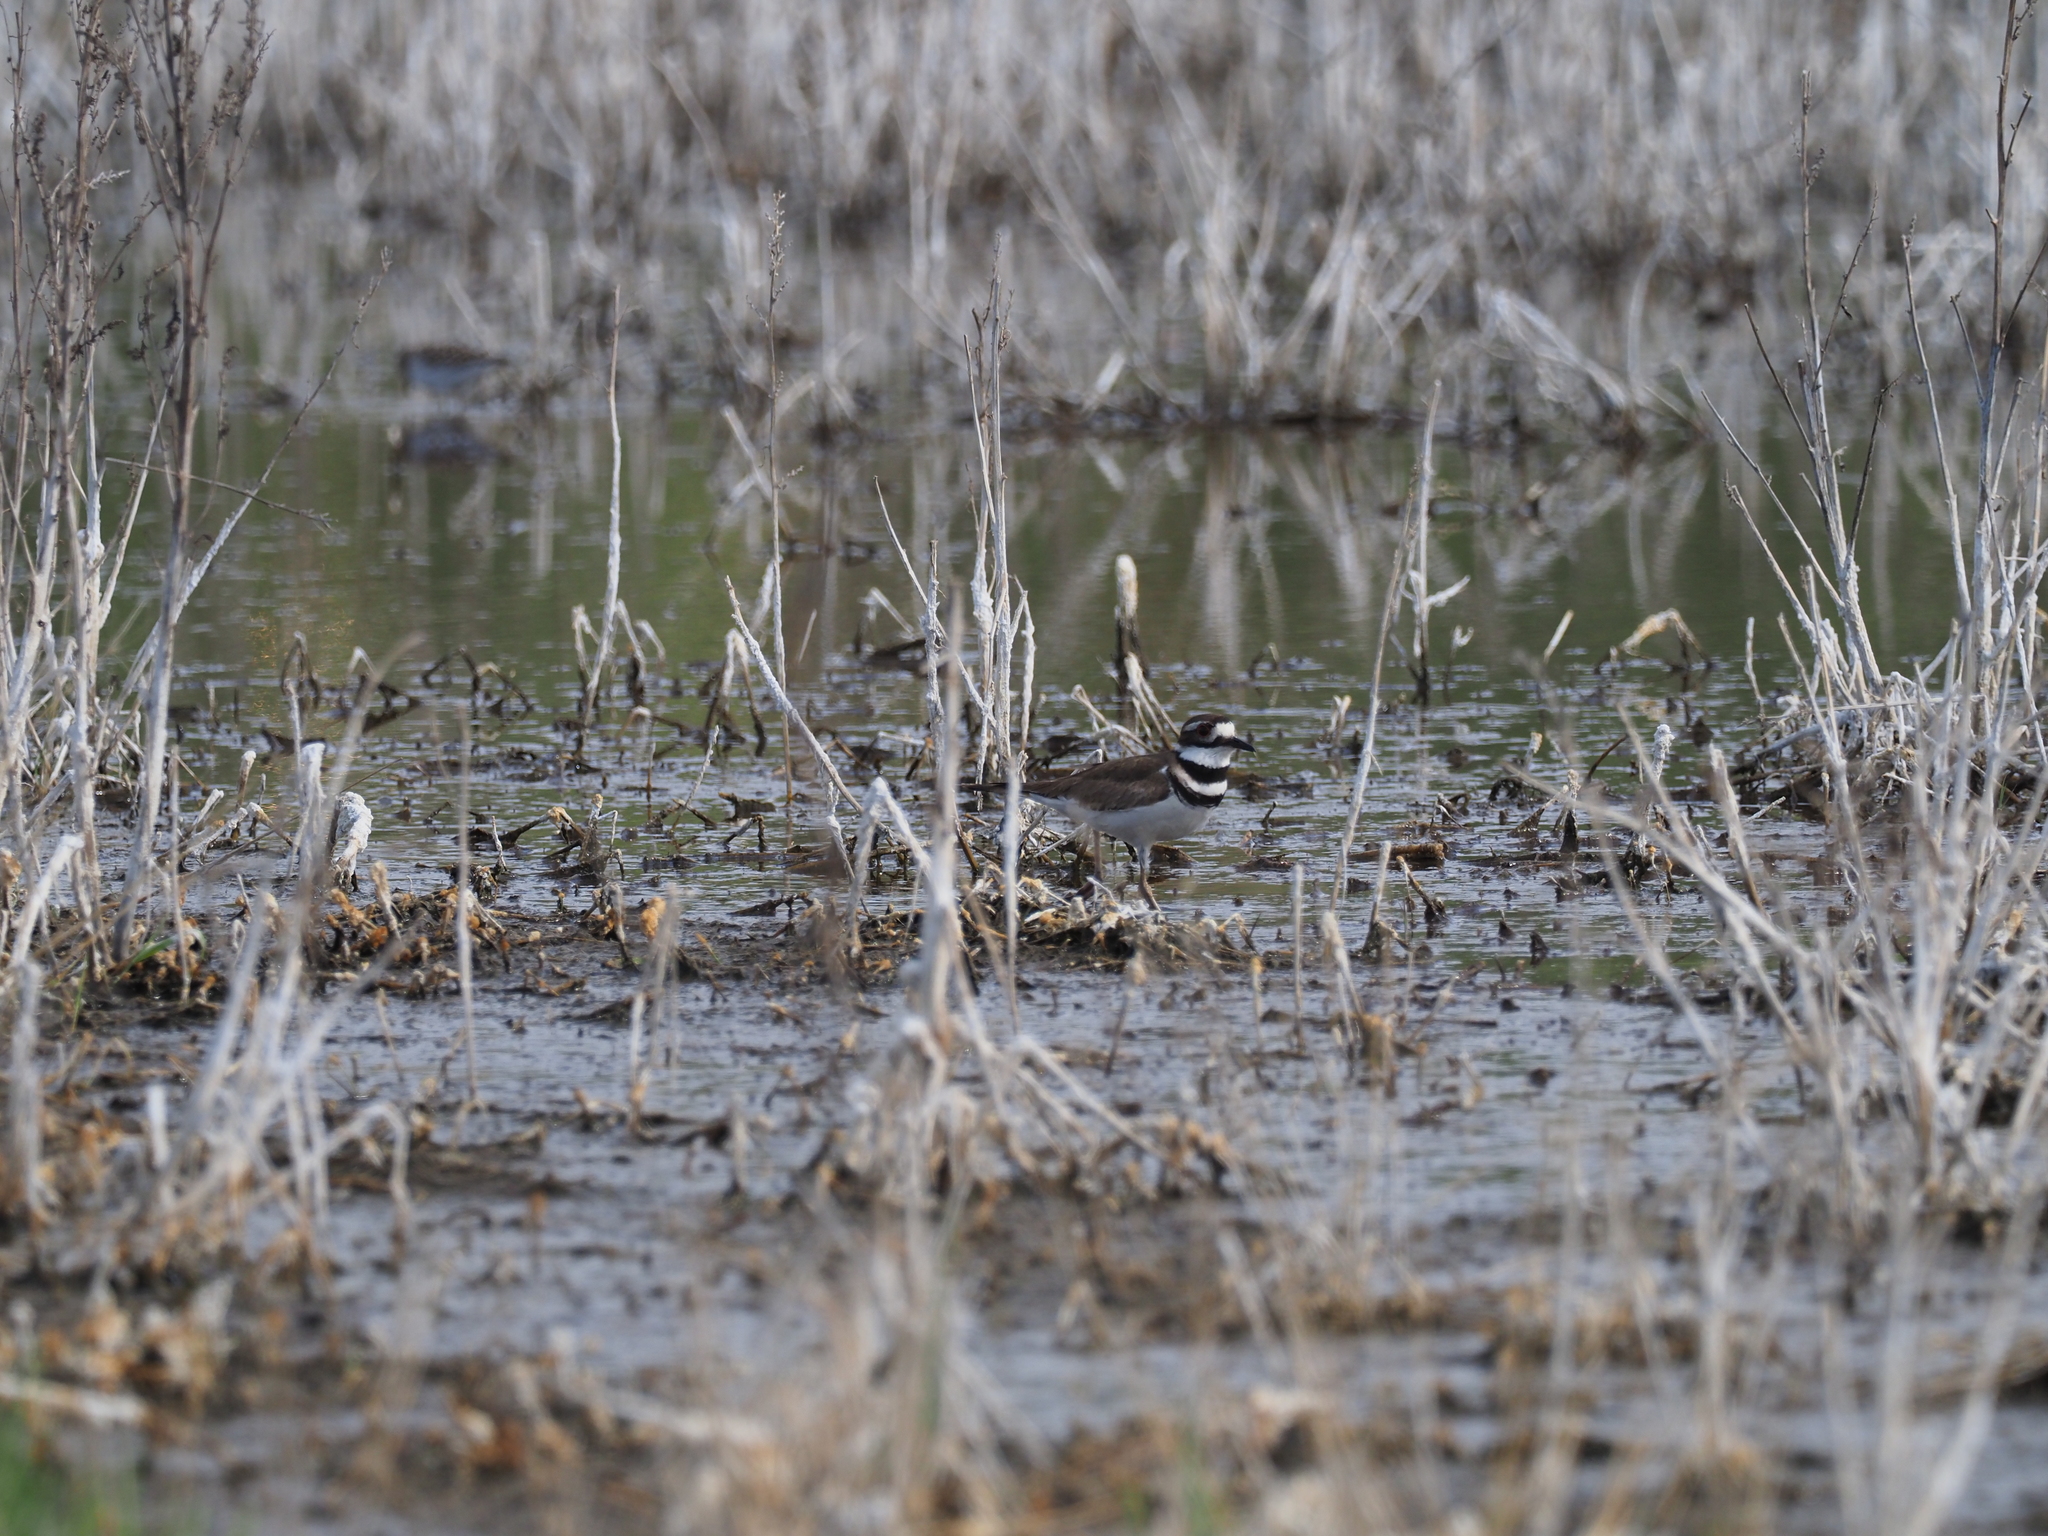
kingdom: Animalia
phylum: Chordata
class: Aves
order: Charadriiformes
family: Charadriidae
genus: Charadrius
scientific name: Charadrius vociferus
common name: Killdeer
